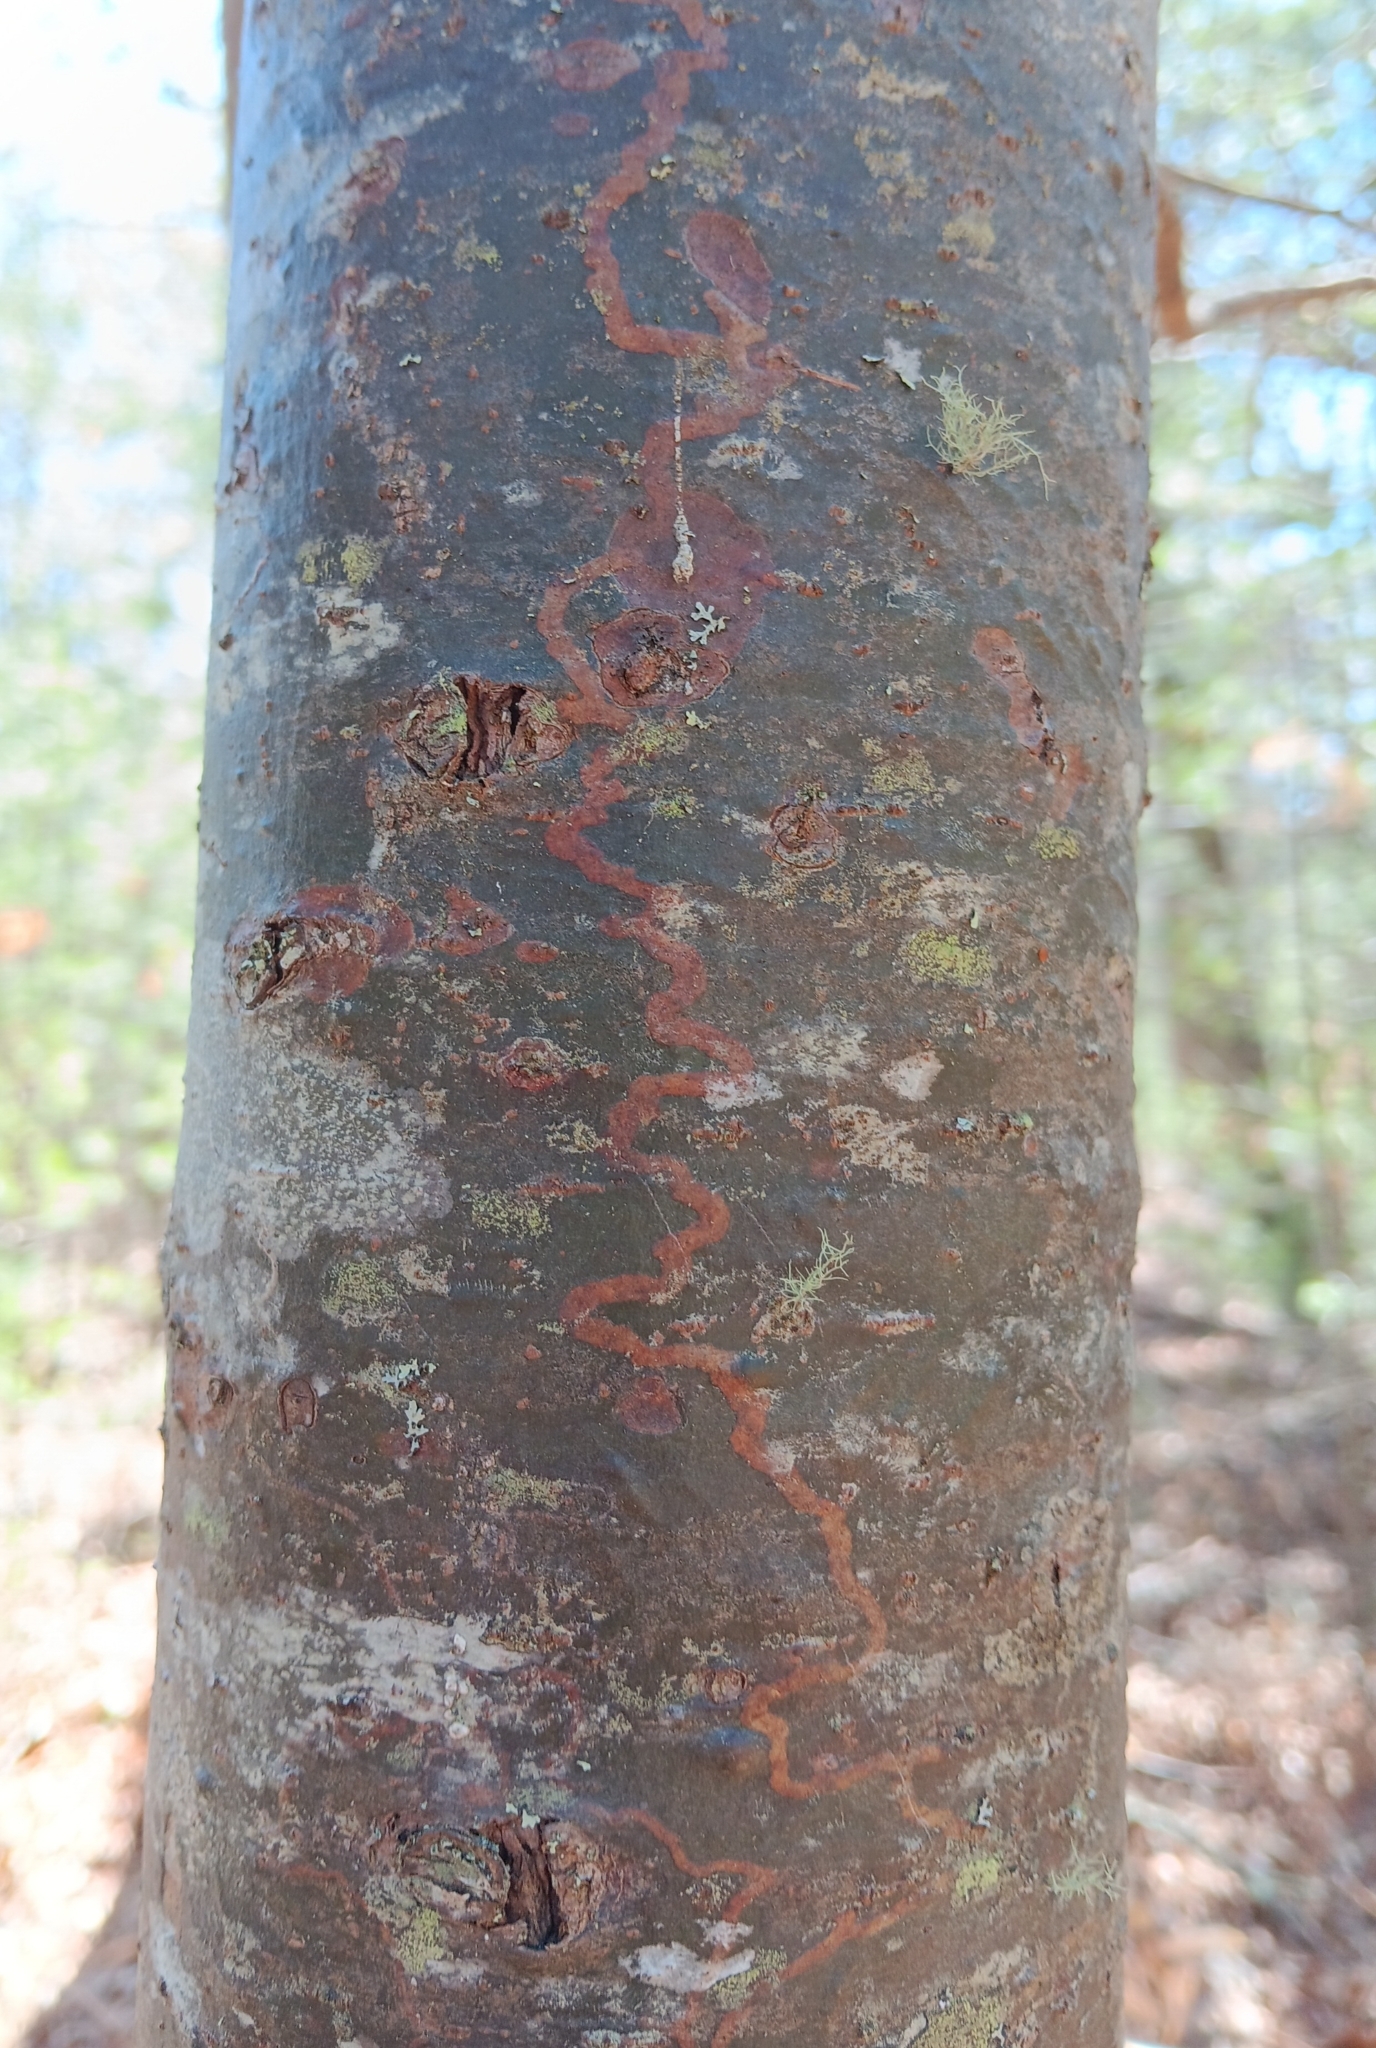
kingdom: Animalia
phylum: Arthropoda
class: Insecta
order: Lepidoptera
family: Gracillariidae
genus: Marmara
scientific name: Marmara fasciella
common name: White pine barkminer moth
